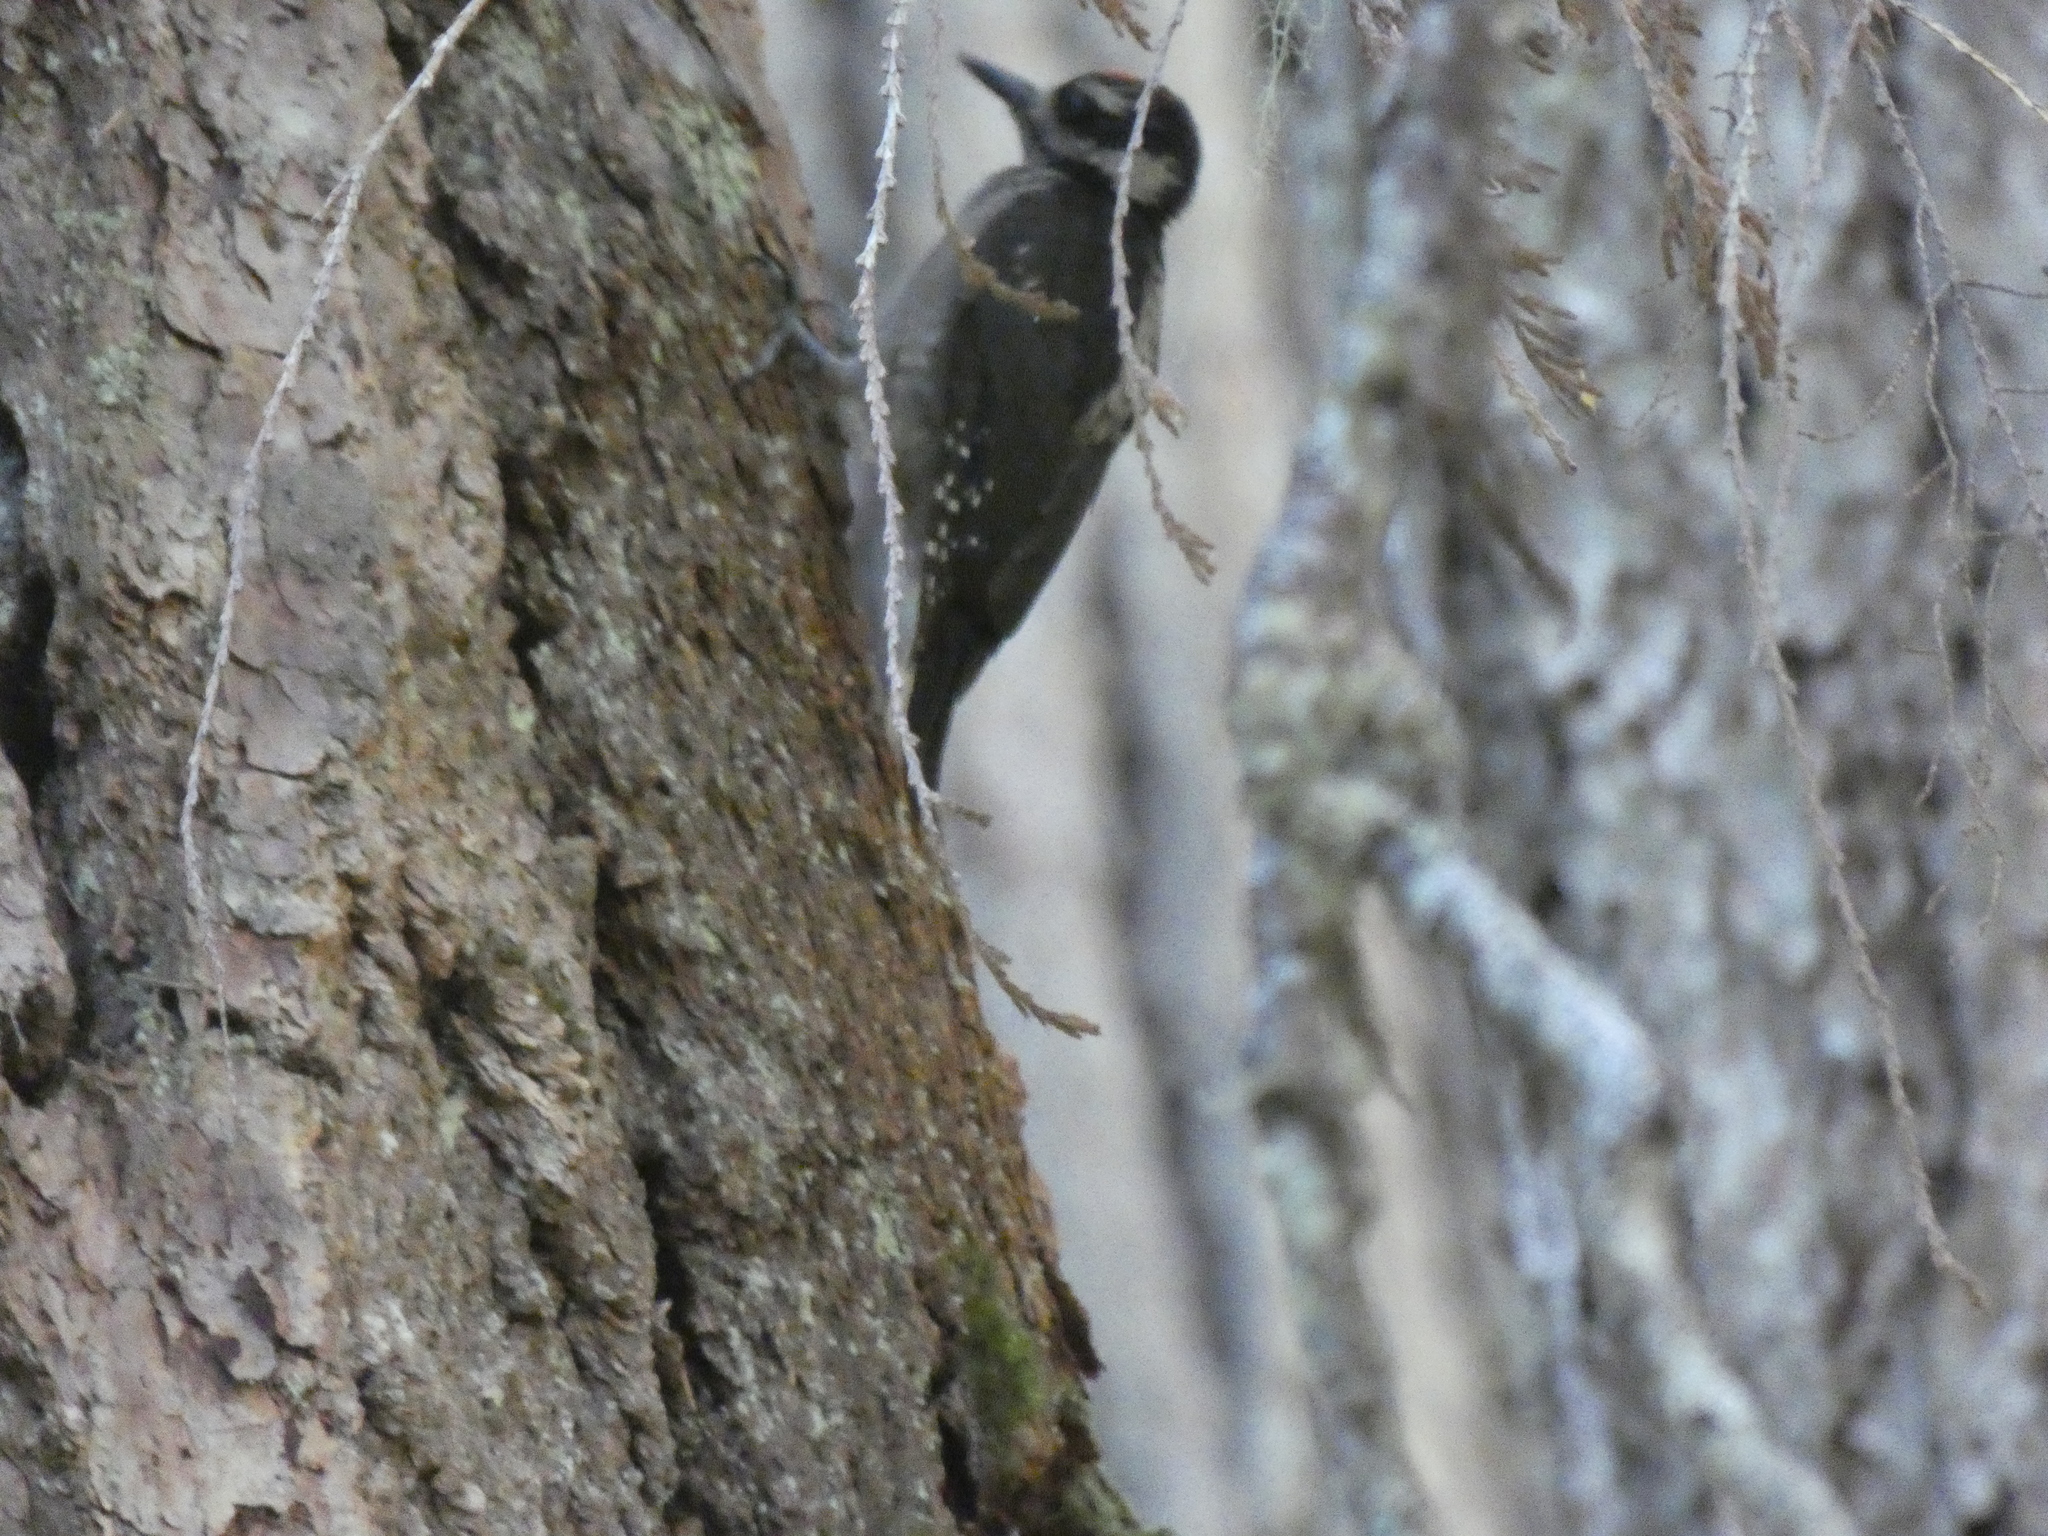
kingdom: Animalia
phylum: Chordata
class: Aves
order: Piciformes
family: Picidae
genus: Leuconotopicus
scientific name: Leuconotopicus villosus
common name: Hairy woodpecker
